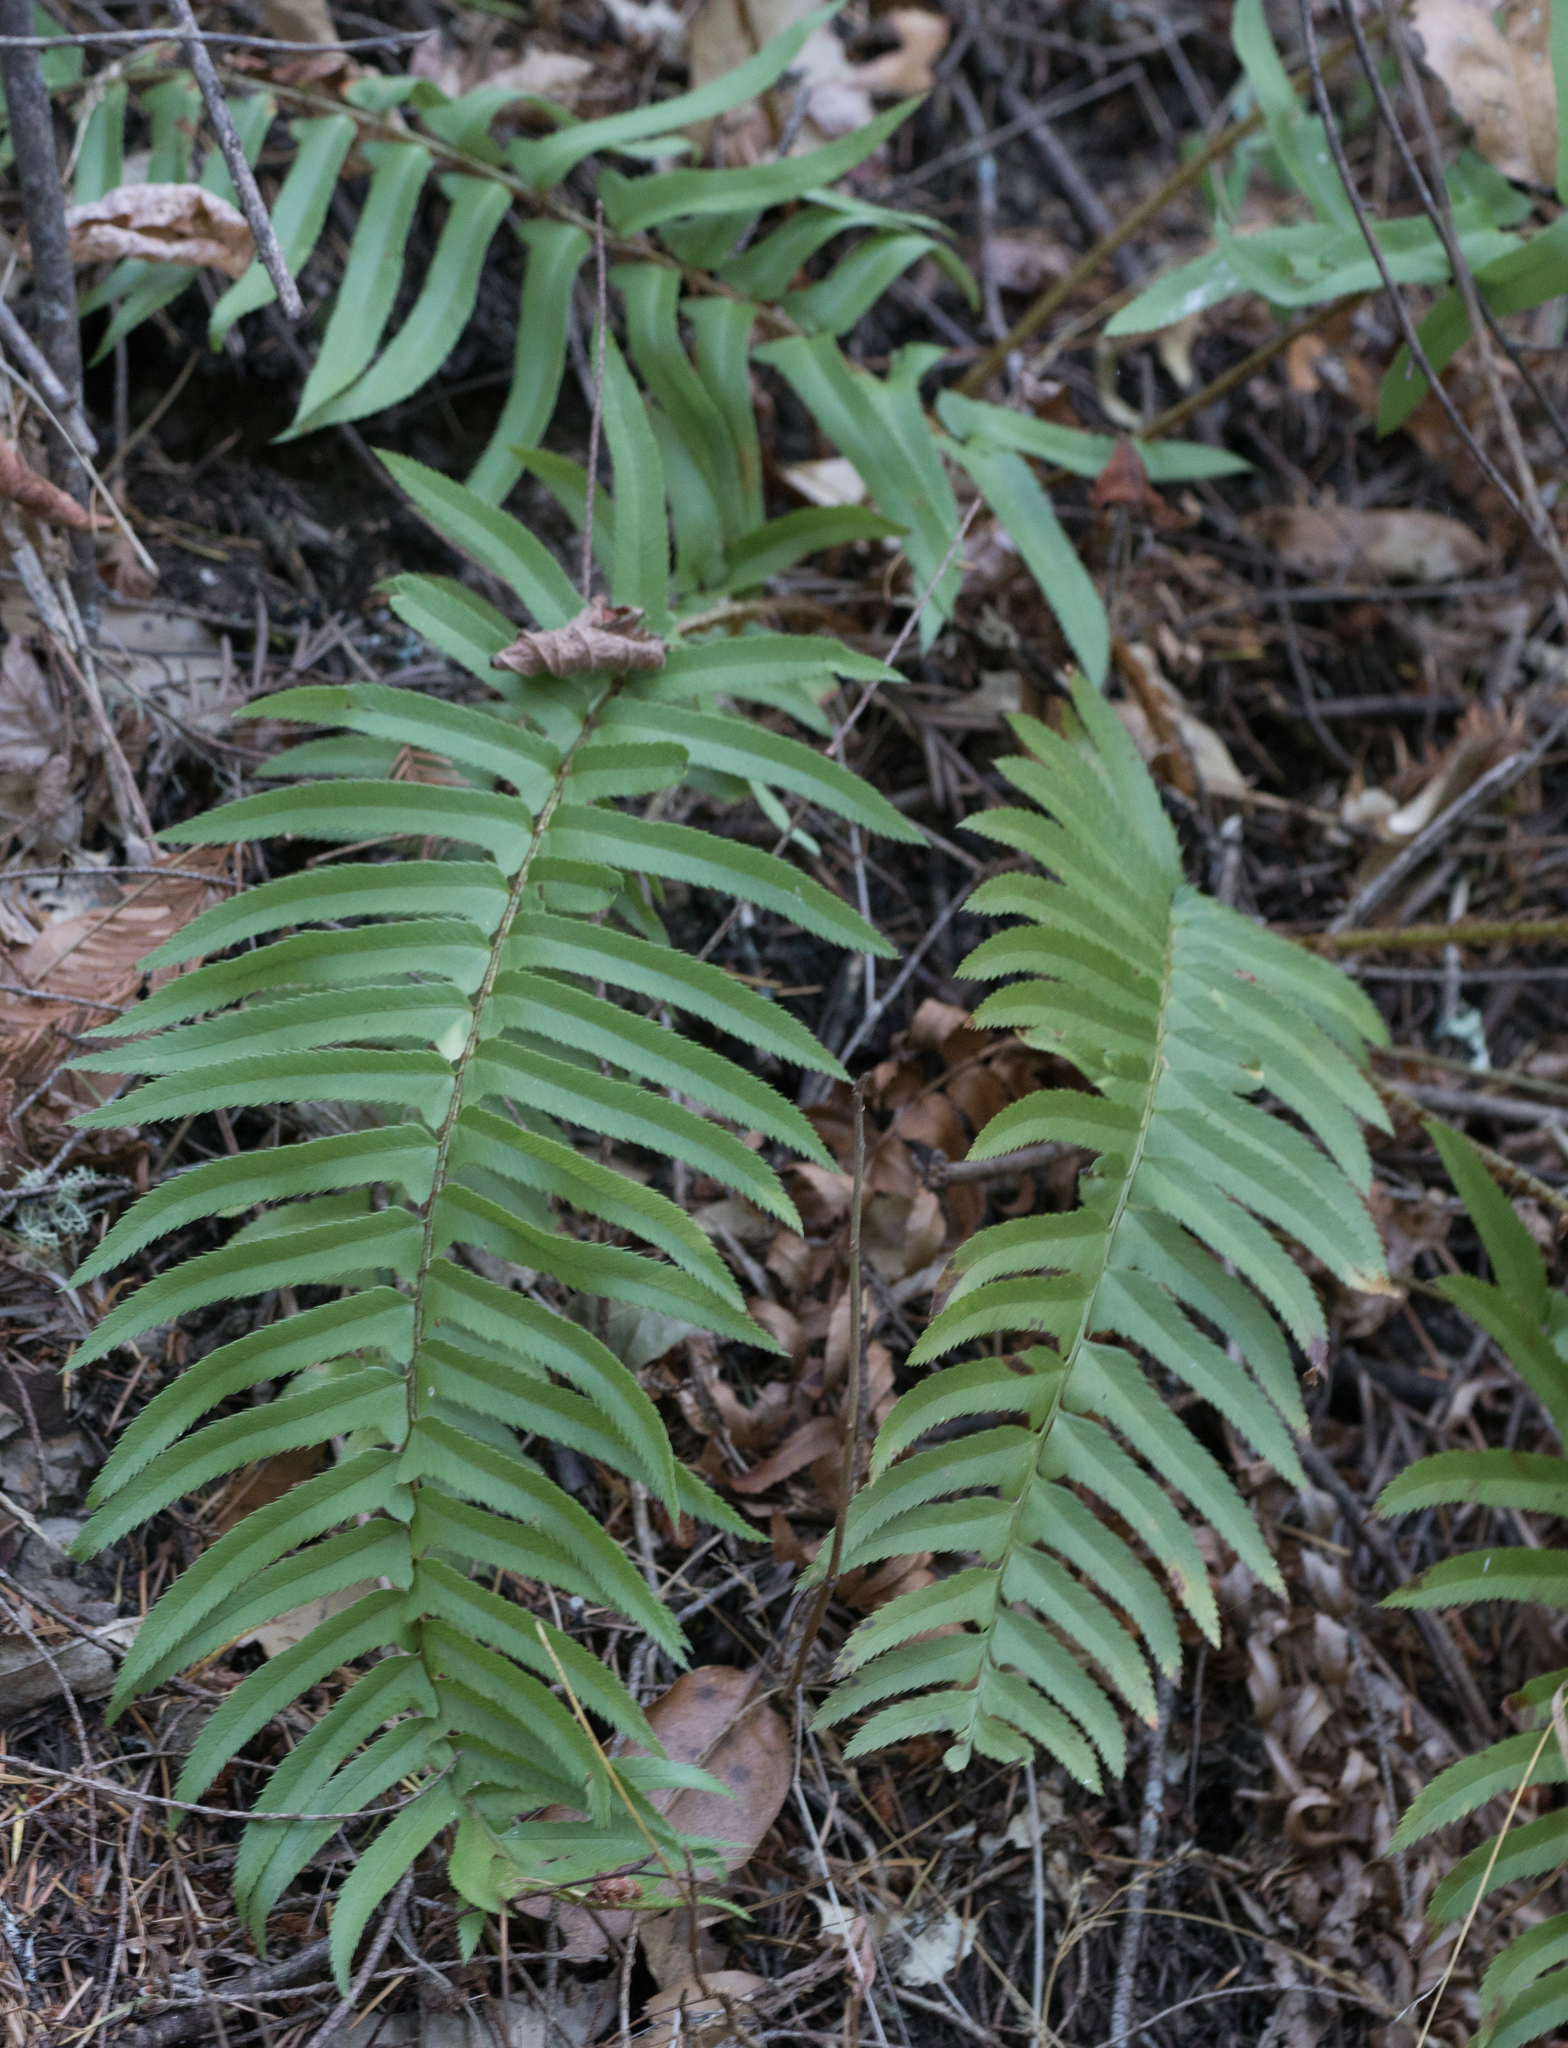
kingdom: Plantae
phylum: Tracheophyta
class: Polypodiopsida
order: Polypodiales
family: Dryopteridaceae
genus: Polystichum
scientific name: Polystichum munitum
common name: Western sword-fern
